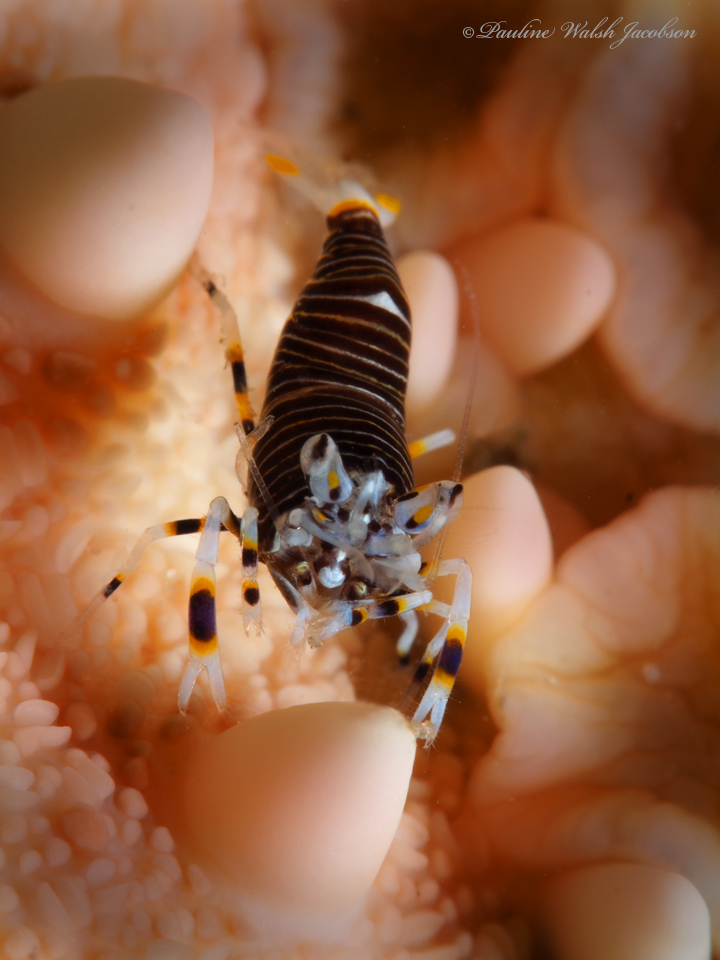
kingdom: Animalia
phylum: Arthropoda
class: Malacostraca
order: Decapoda
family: Palaemonidae
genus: Gnathophyllum
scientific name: Gnathophyllum americanum
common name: Bumblebee shrimp
